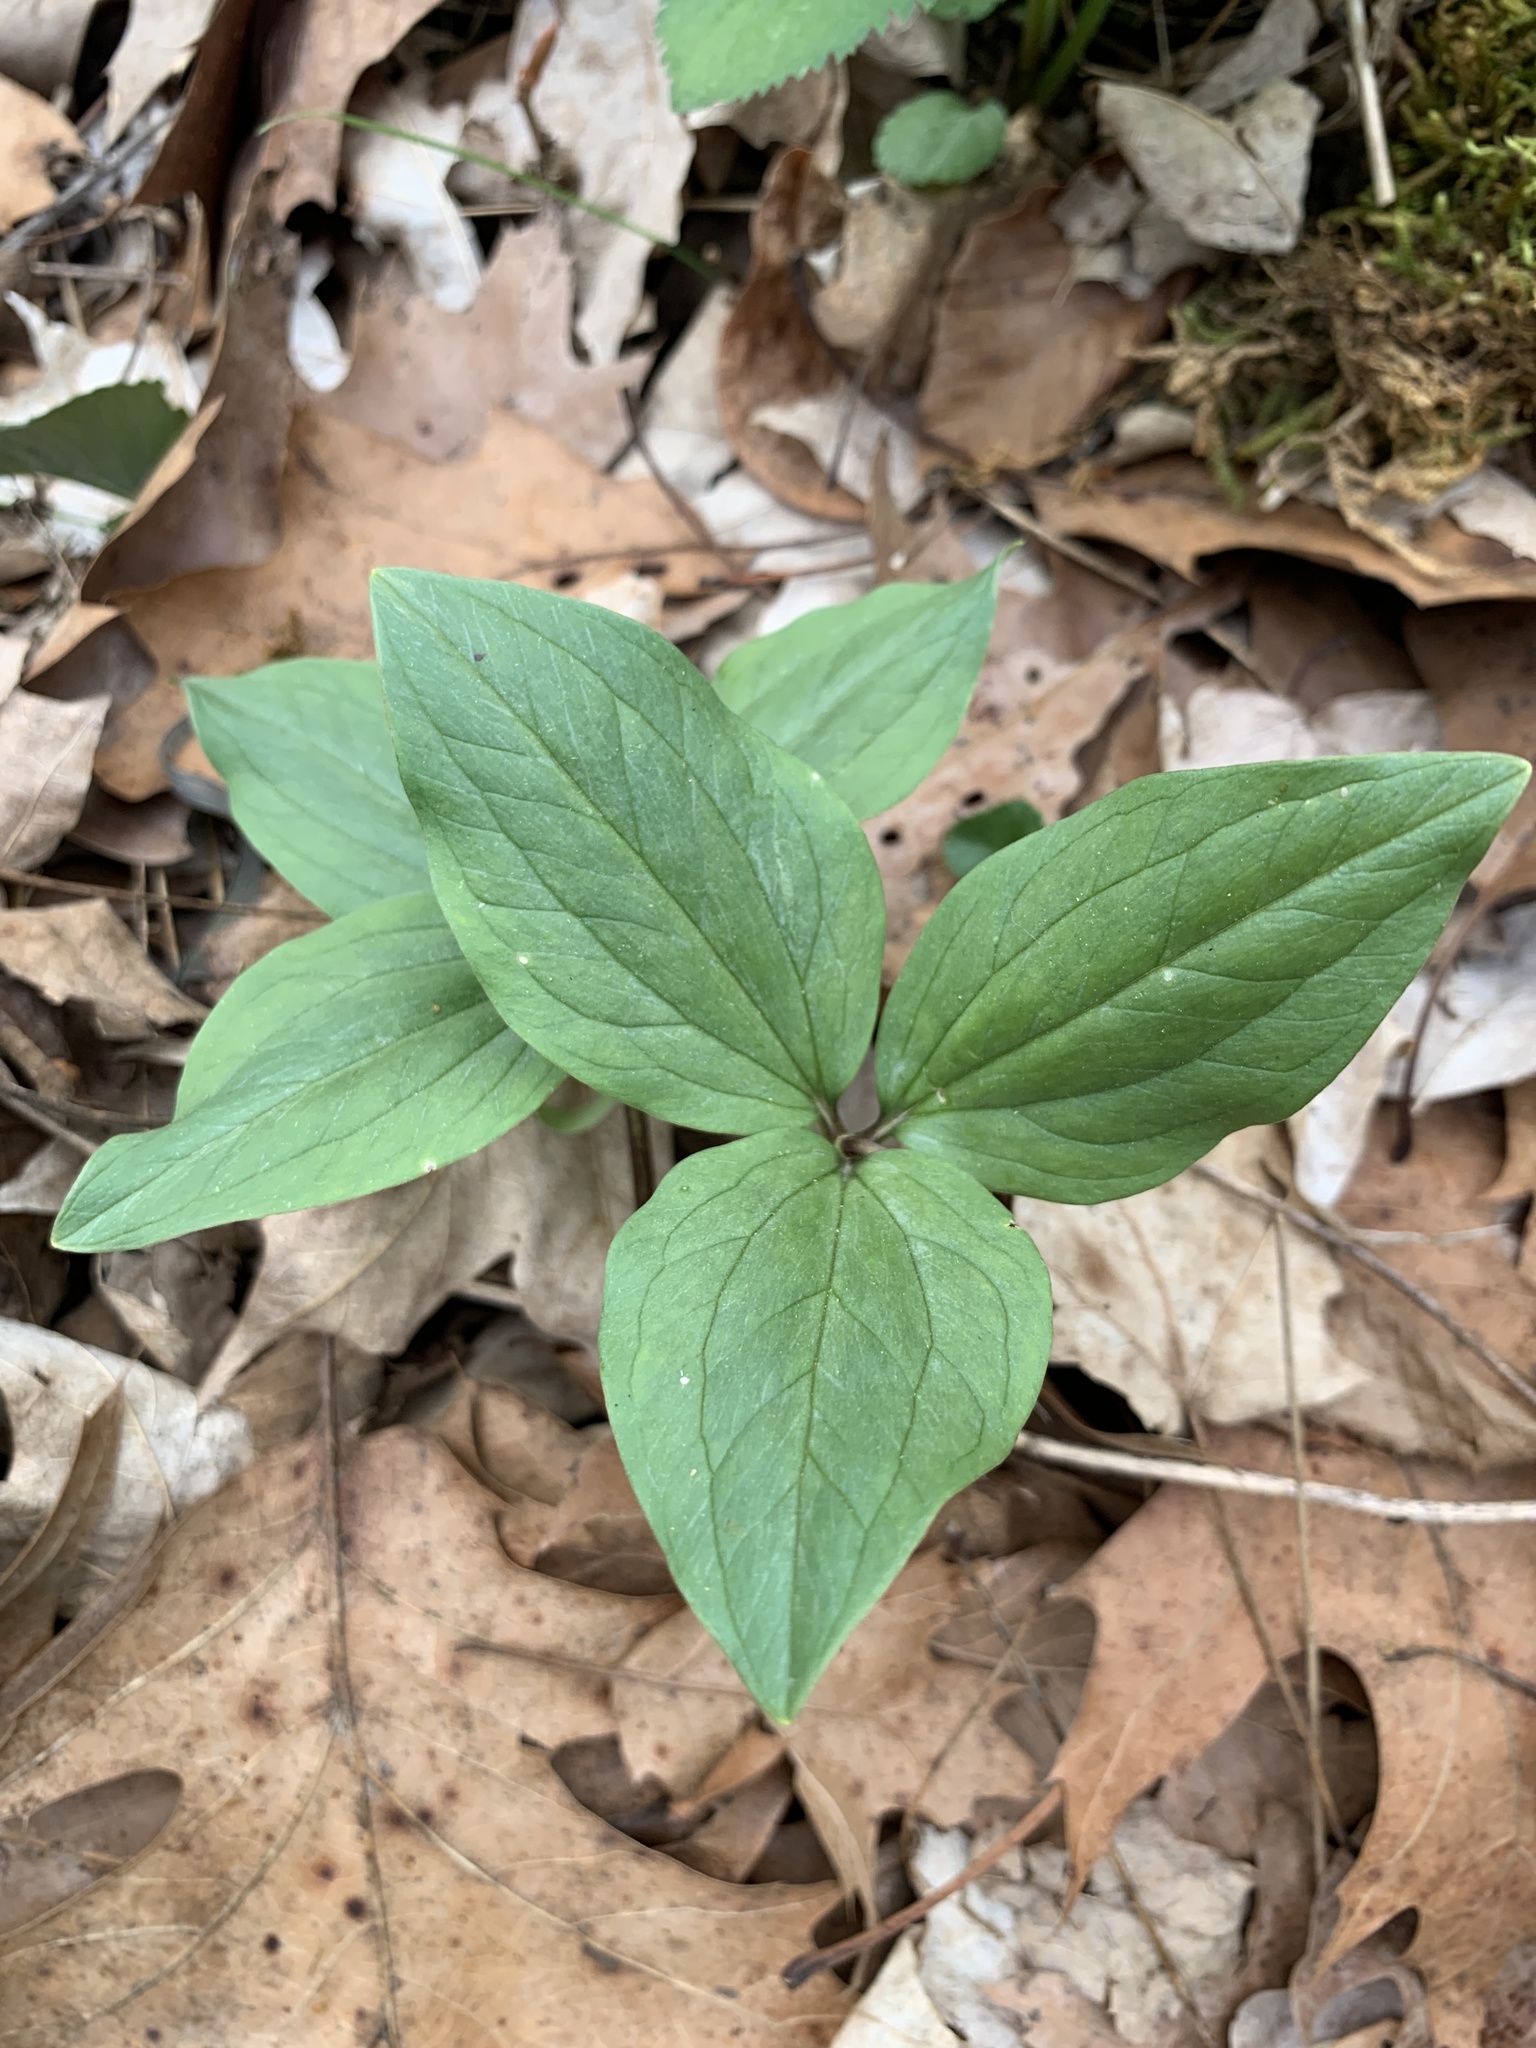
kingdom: Plantae
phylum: Tracheophyta
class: Liliopsida
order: Liliales
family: Melanthiaceae
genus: Trillium
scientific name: Trillium nivale
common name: Dwarf white trillium
